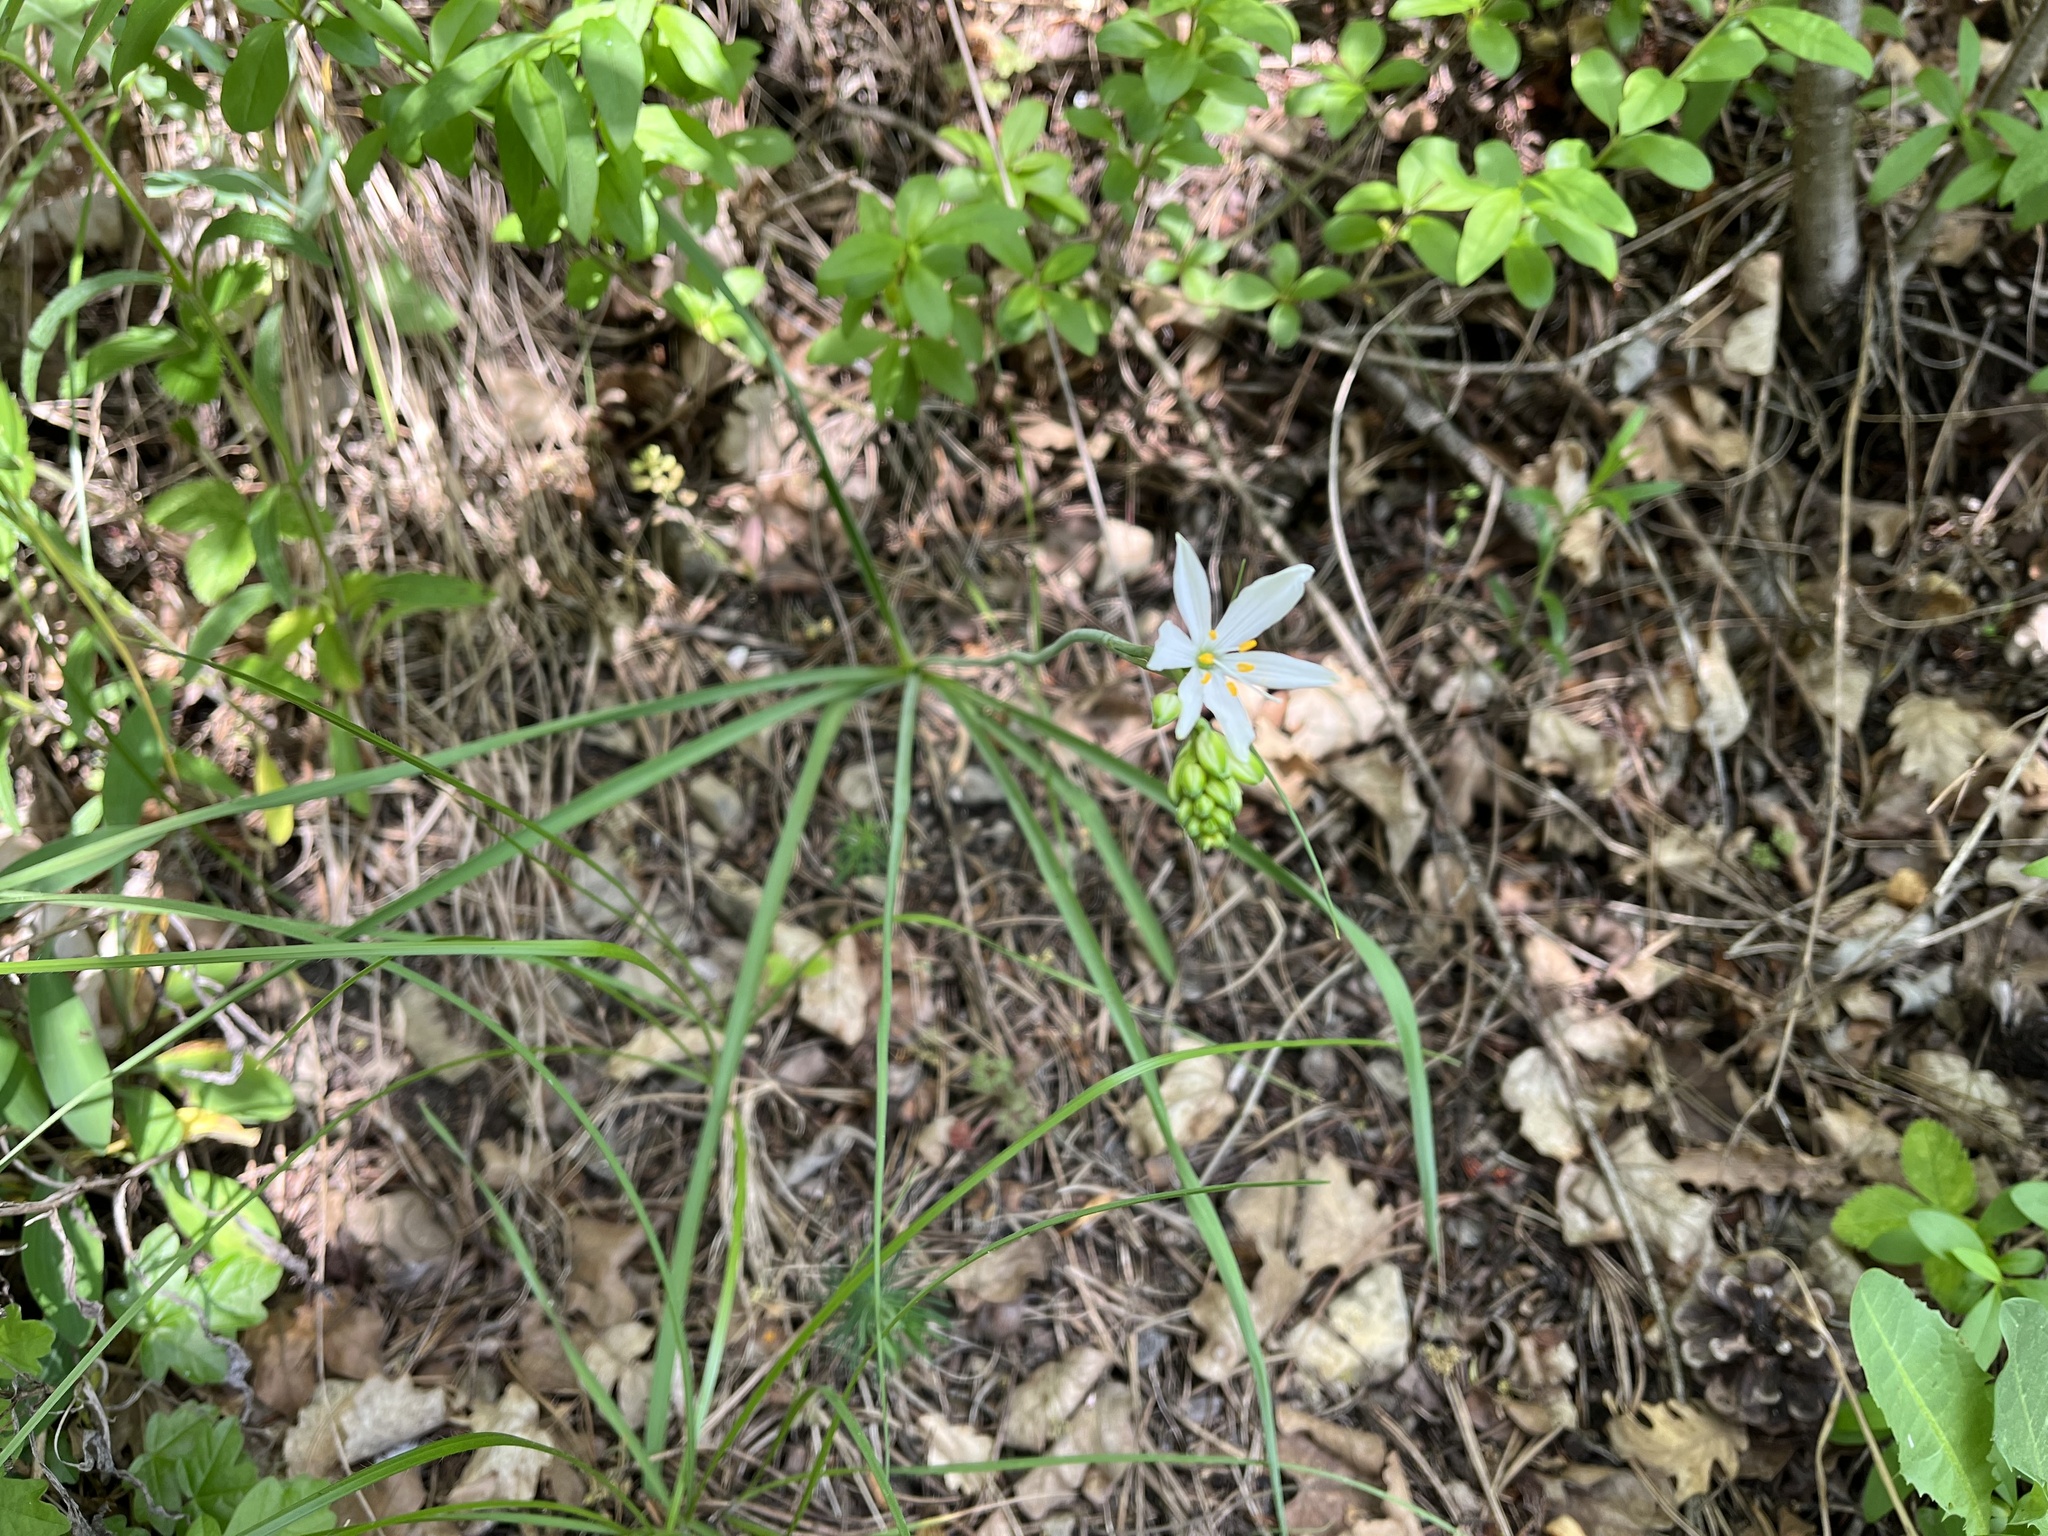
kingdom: Plantae
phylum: Tracheophyta
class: Liliopsida
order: Asparagales
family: Asparagaceae
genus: Anthericum
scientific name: Anthericum liliago
